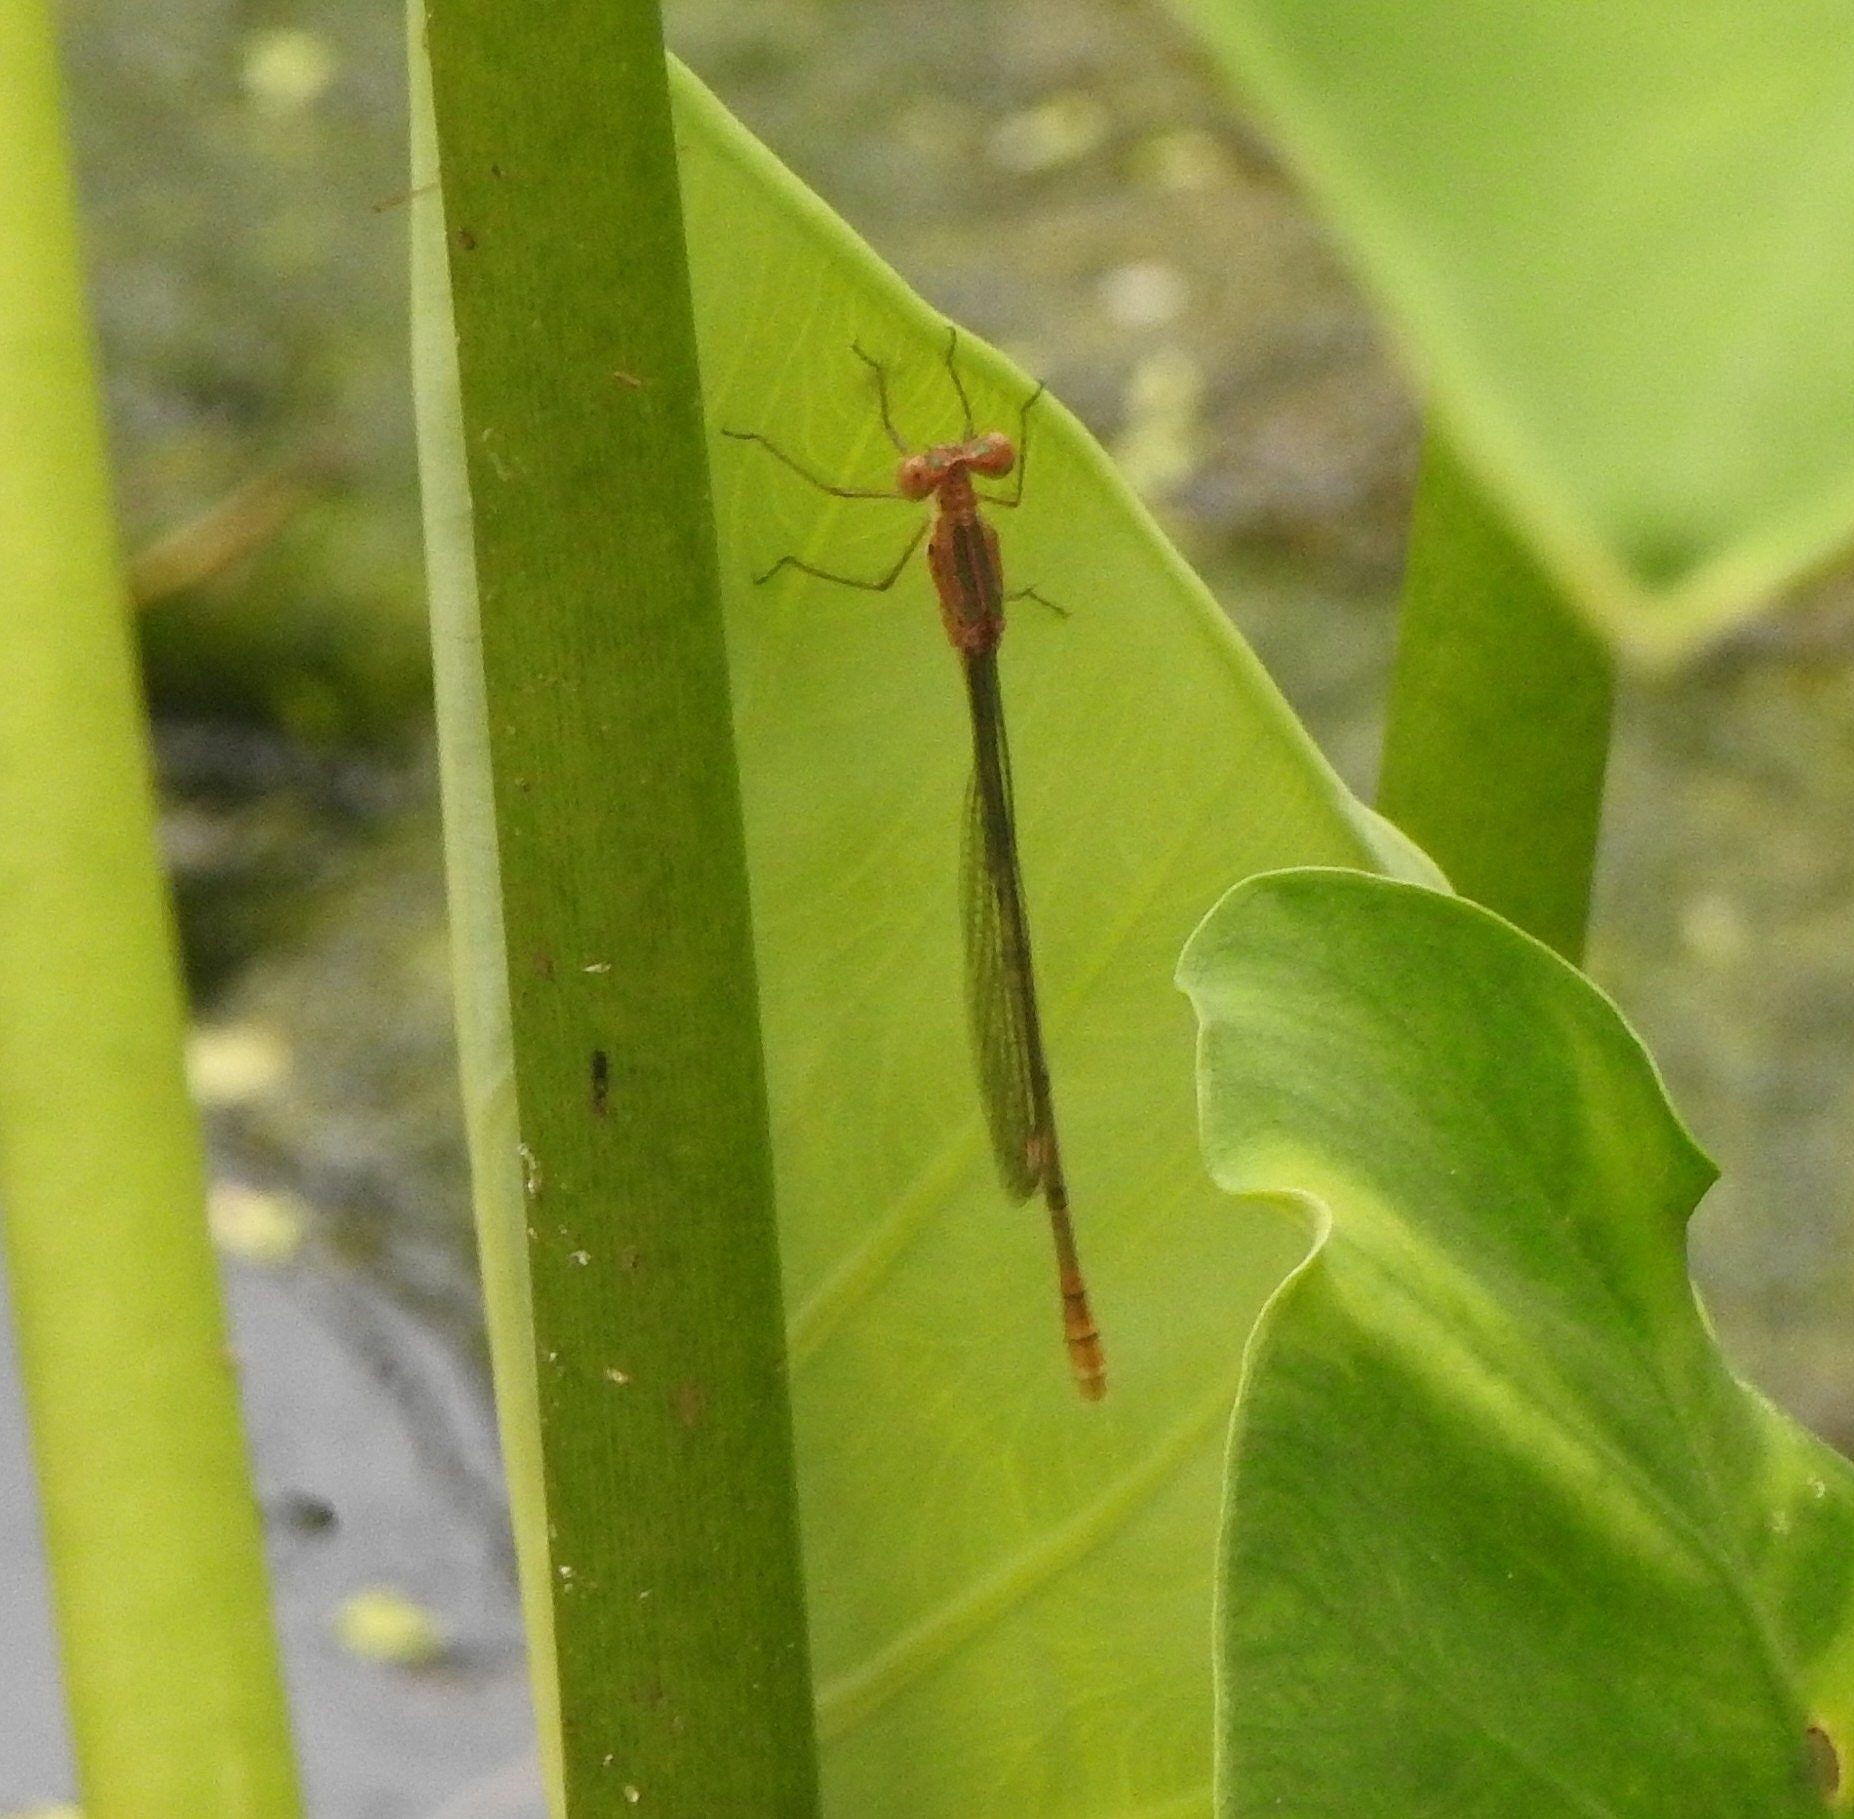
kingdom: Animalia
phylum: Arthropoda
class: Insecta
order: Odonata
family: Lestidae
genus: Lestes
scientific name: Lestes elatus
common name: Emerald spreadwing
